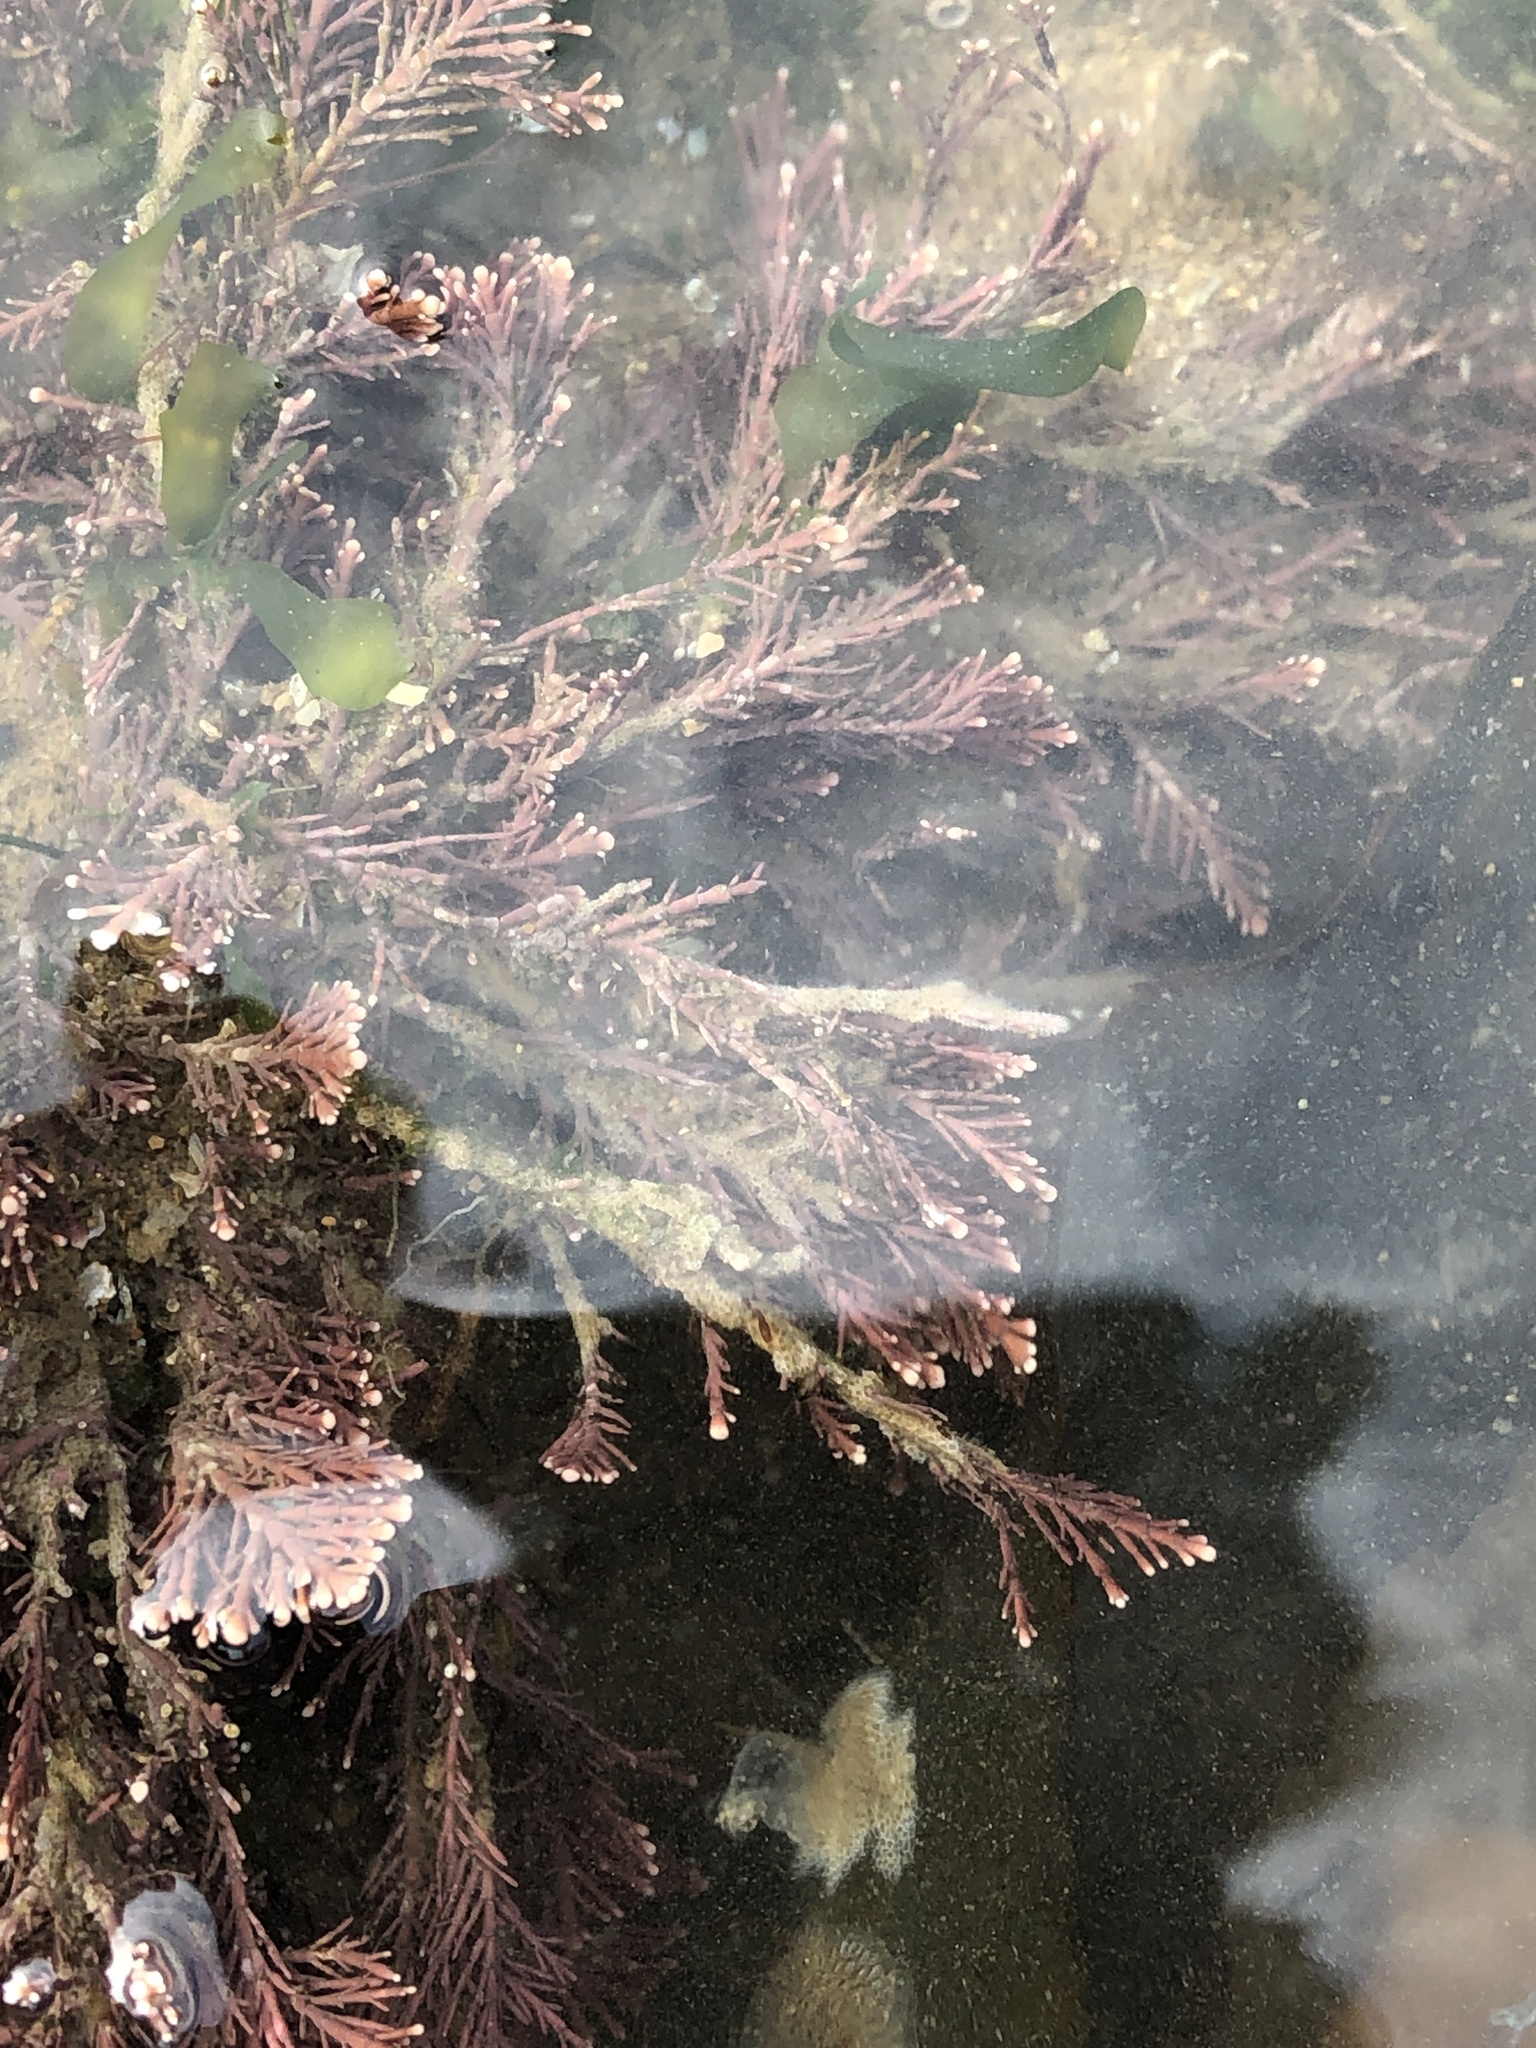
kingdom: Plantae
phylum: Rhodophyta
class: Florideophyceae
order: Corallinales
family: Corallinaceae
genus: Corallina
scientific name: Corallina officinalis
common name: Coral weed
